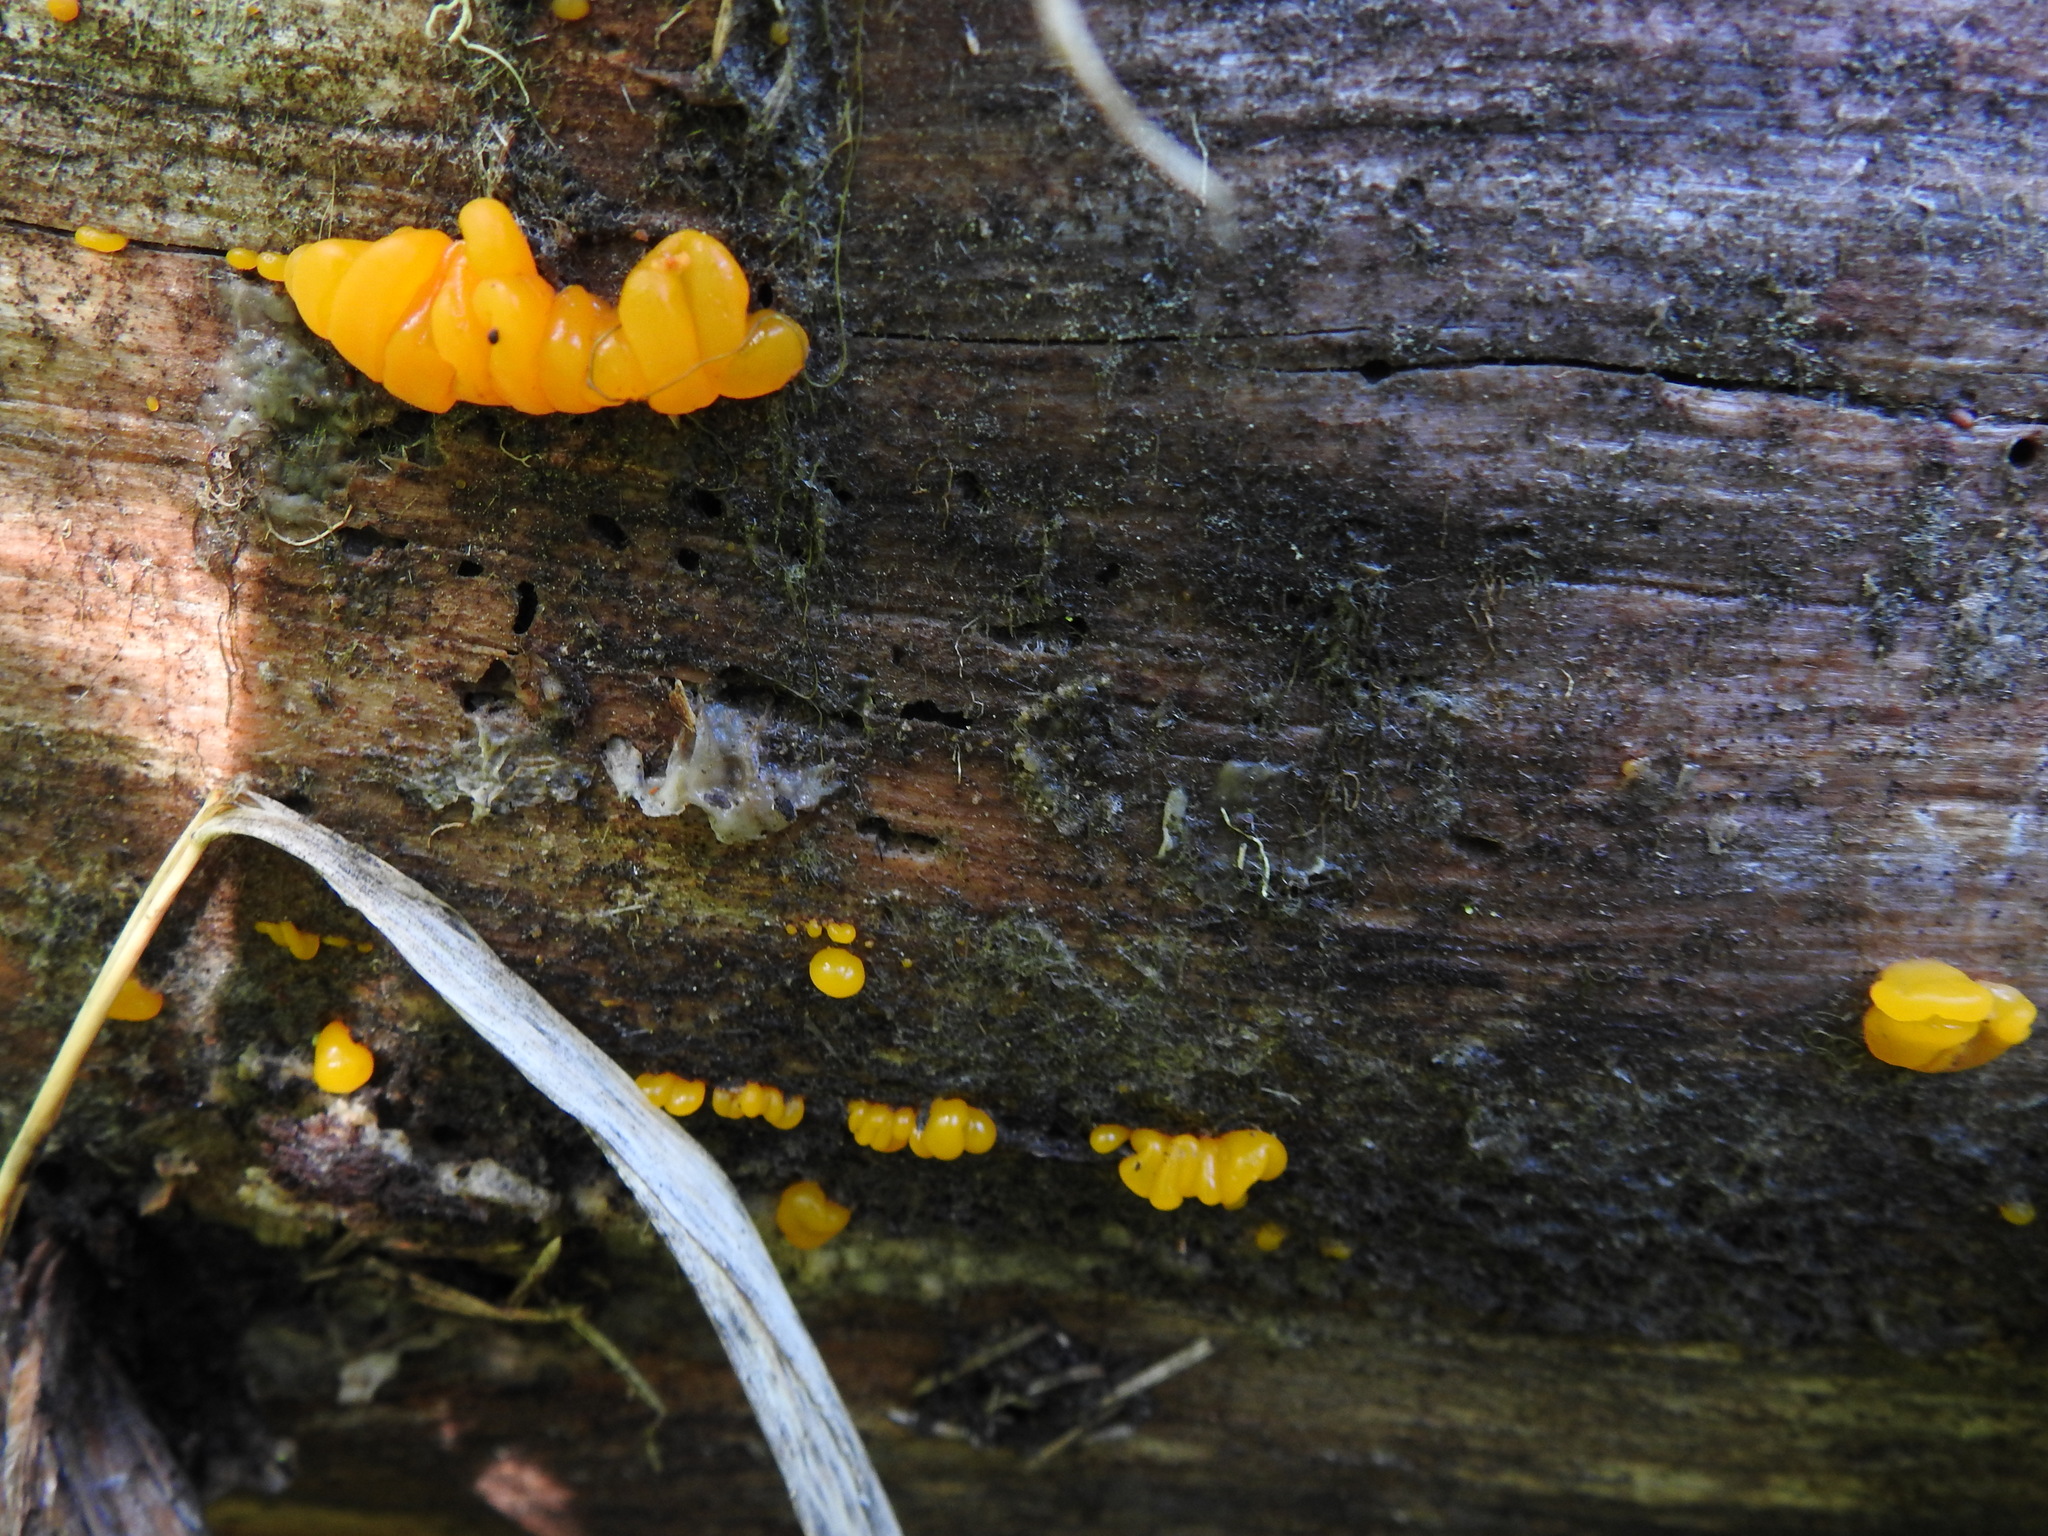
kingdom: Fungi
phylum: Basidiomycota
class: Dacrymycetes
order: Dacrymycetales
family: Dacrymycetaceae
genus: Dacrymyces
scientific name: Dacrymyces chrysospermus
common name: Orange jelly spot
